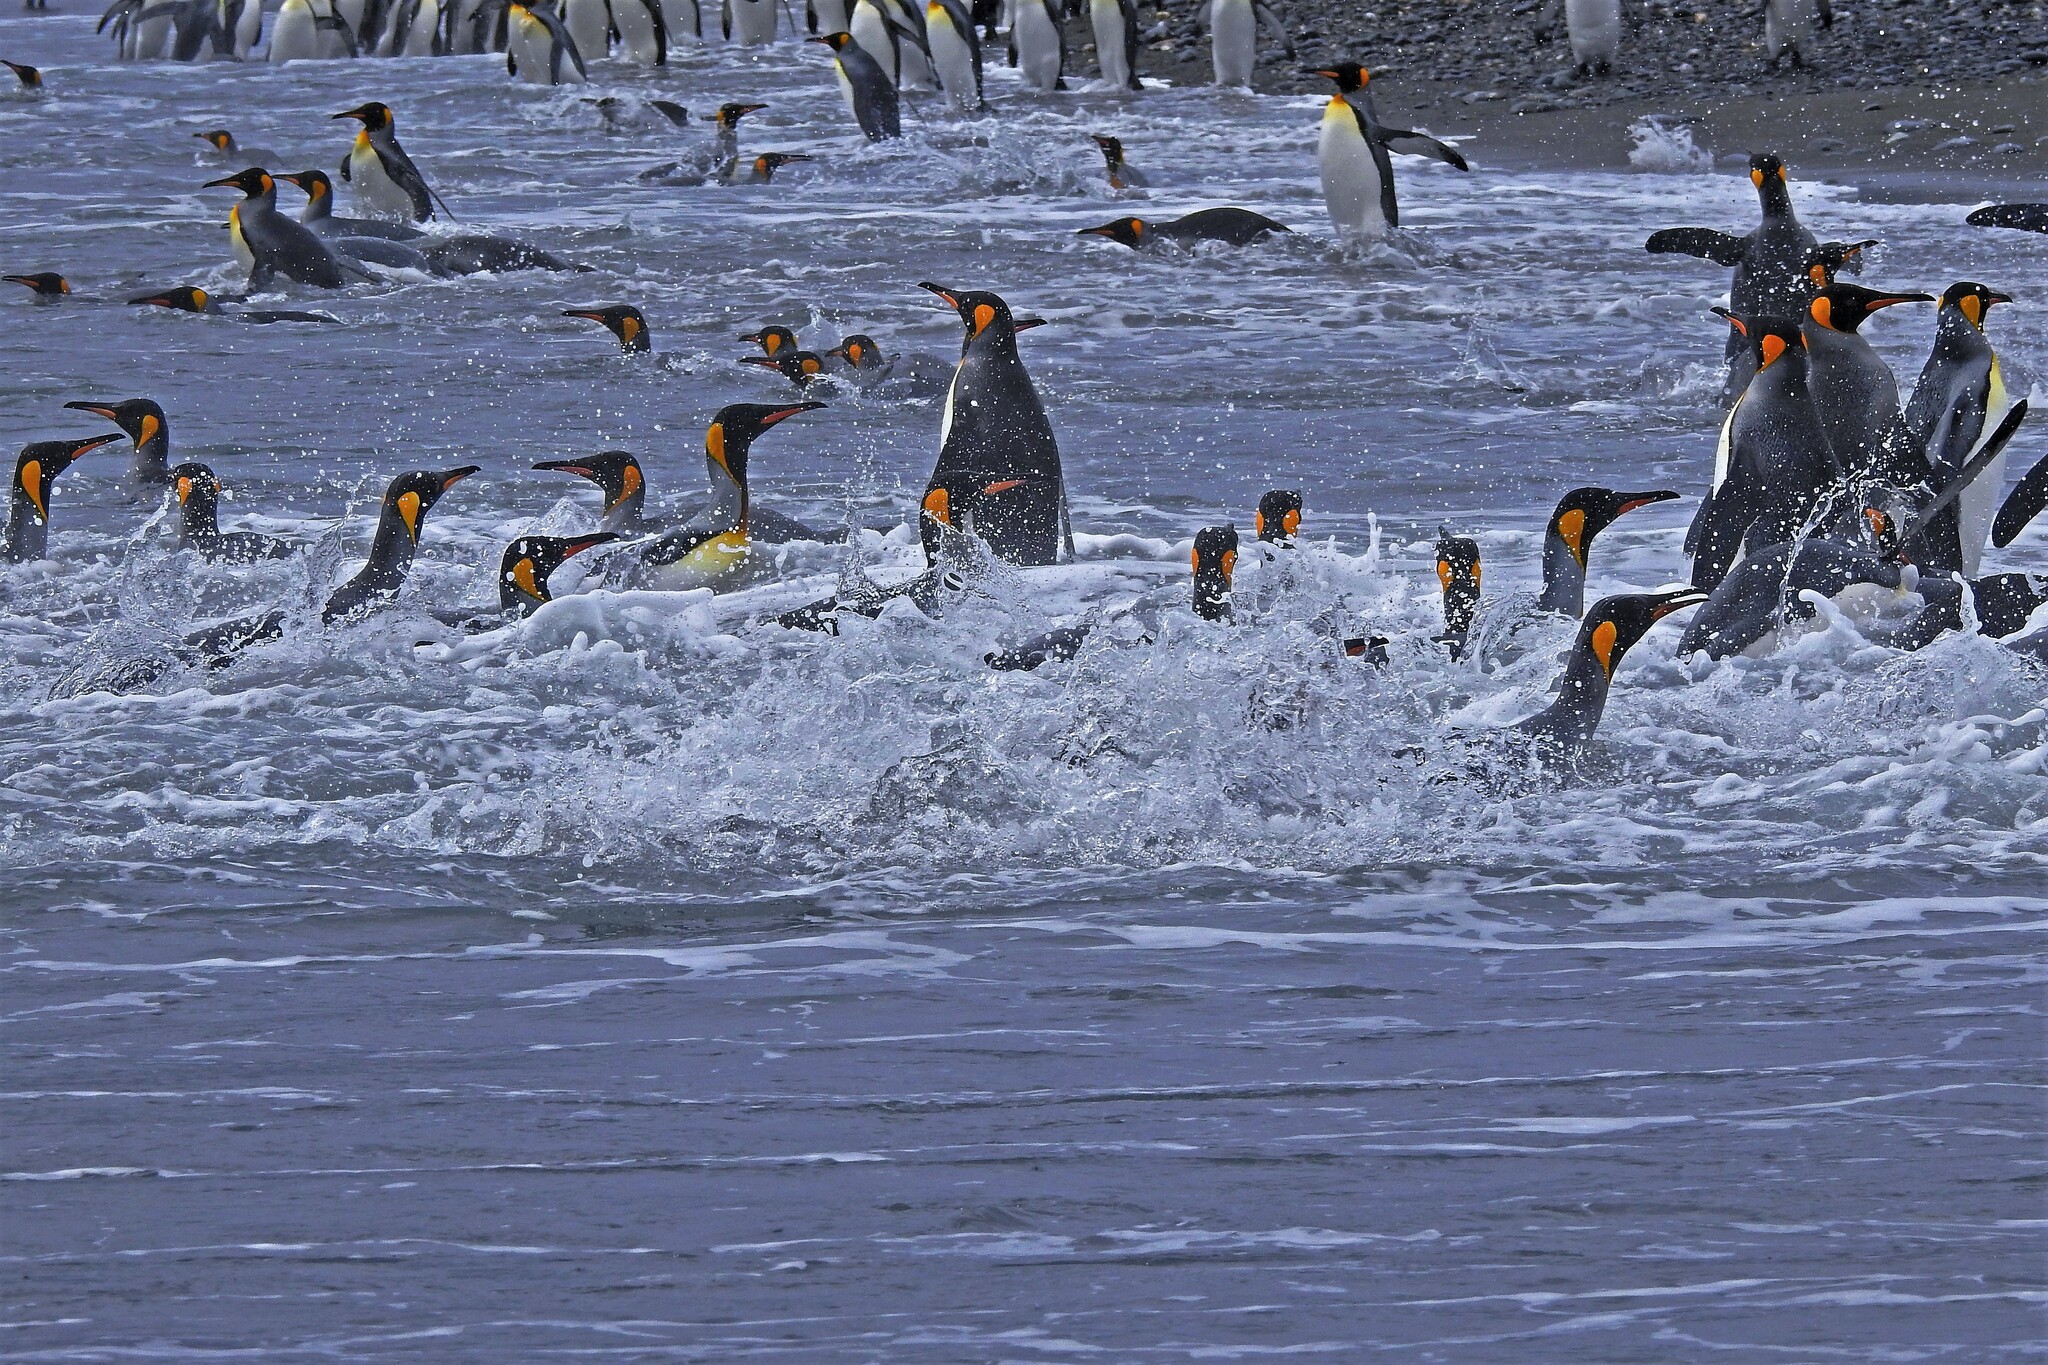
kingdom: Animalia
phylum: Chordata
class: Aves
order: Sphenisciformes
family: Spheniscidae
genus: Aptenodytes
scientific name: Aptenodytes patagonicus
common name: King penguin
